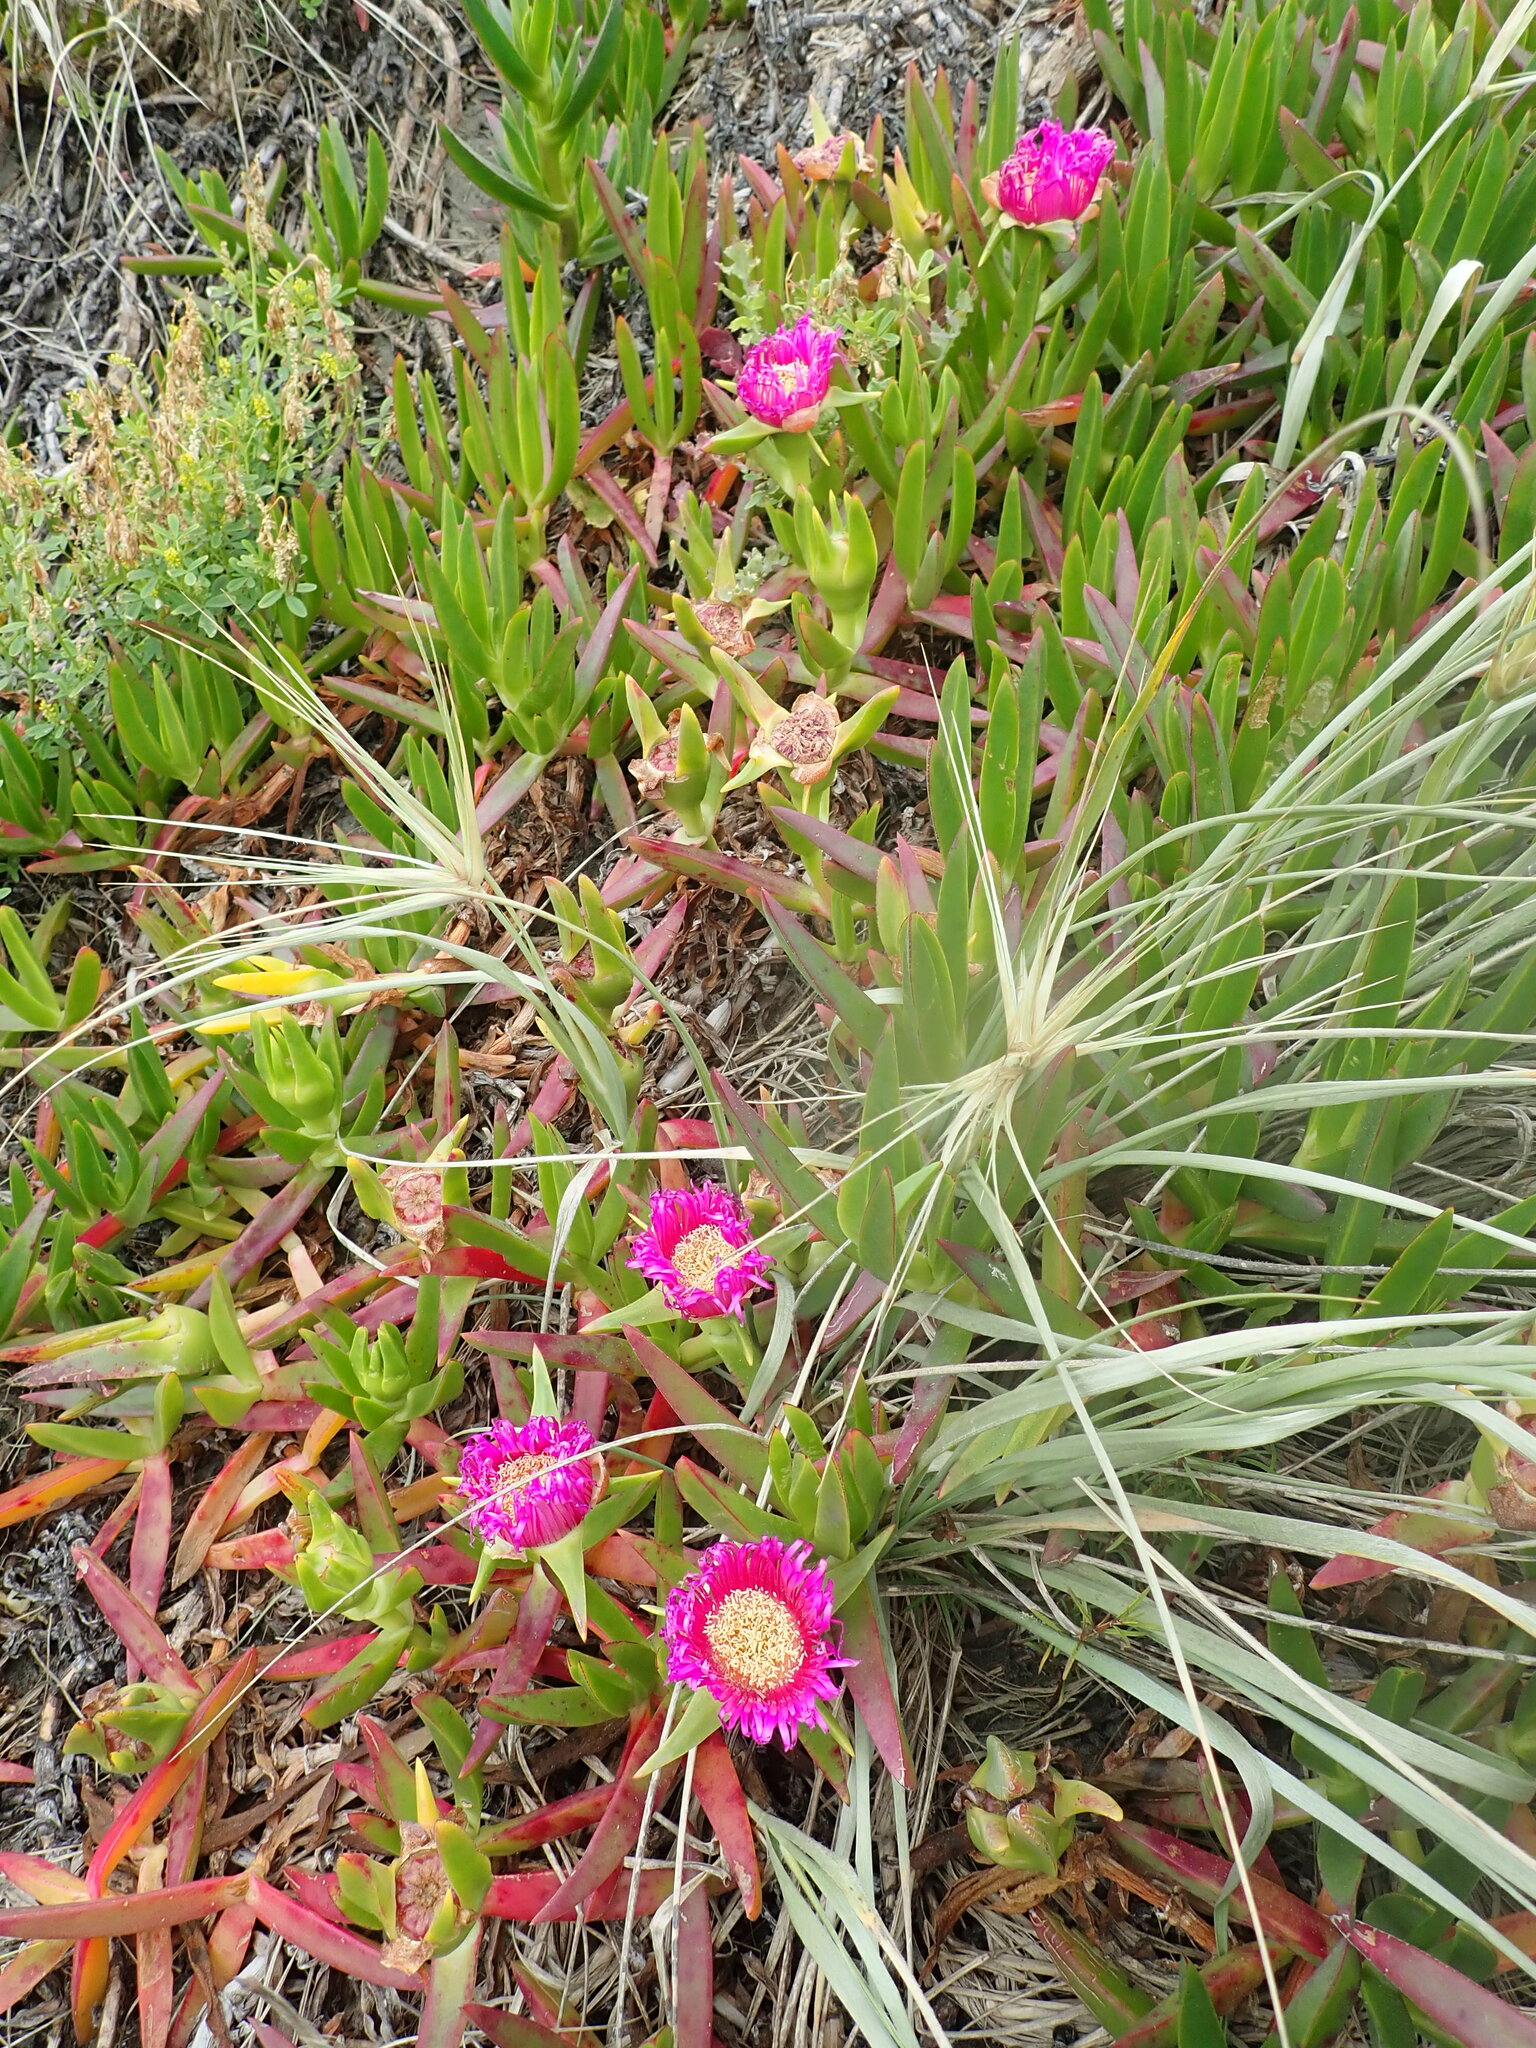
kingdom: Plantae
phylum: Tracheophyta
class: Magnoliopsida
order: Caryophyllales
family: Aizoaceae
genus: Carpobrotus
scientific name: Carpobrotus chilensis
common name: Sea fig
